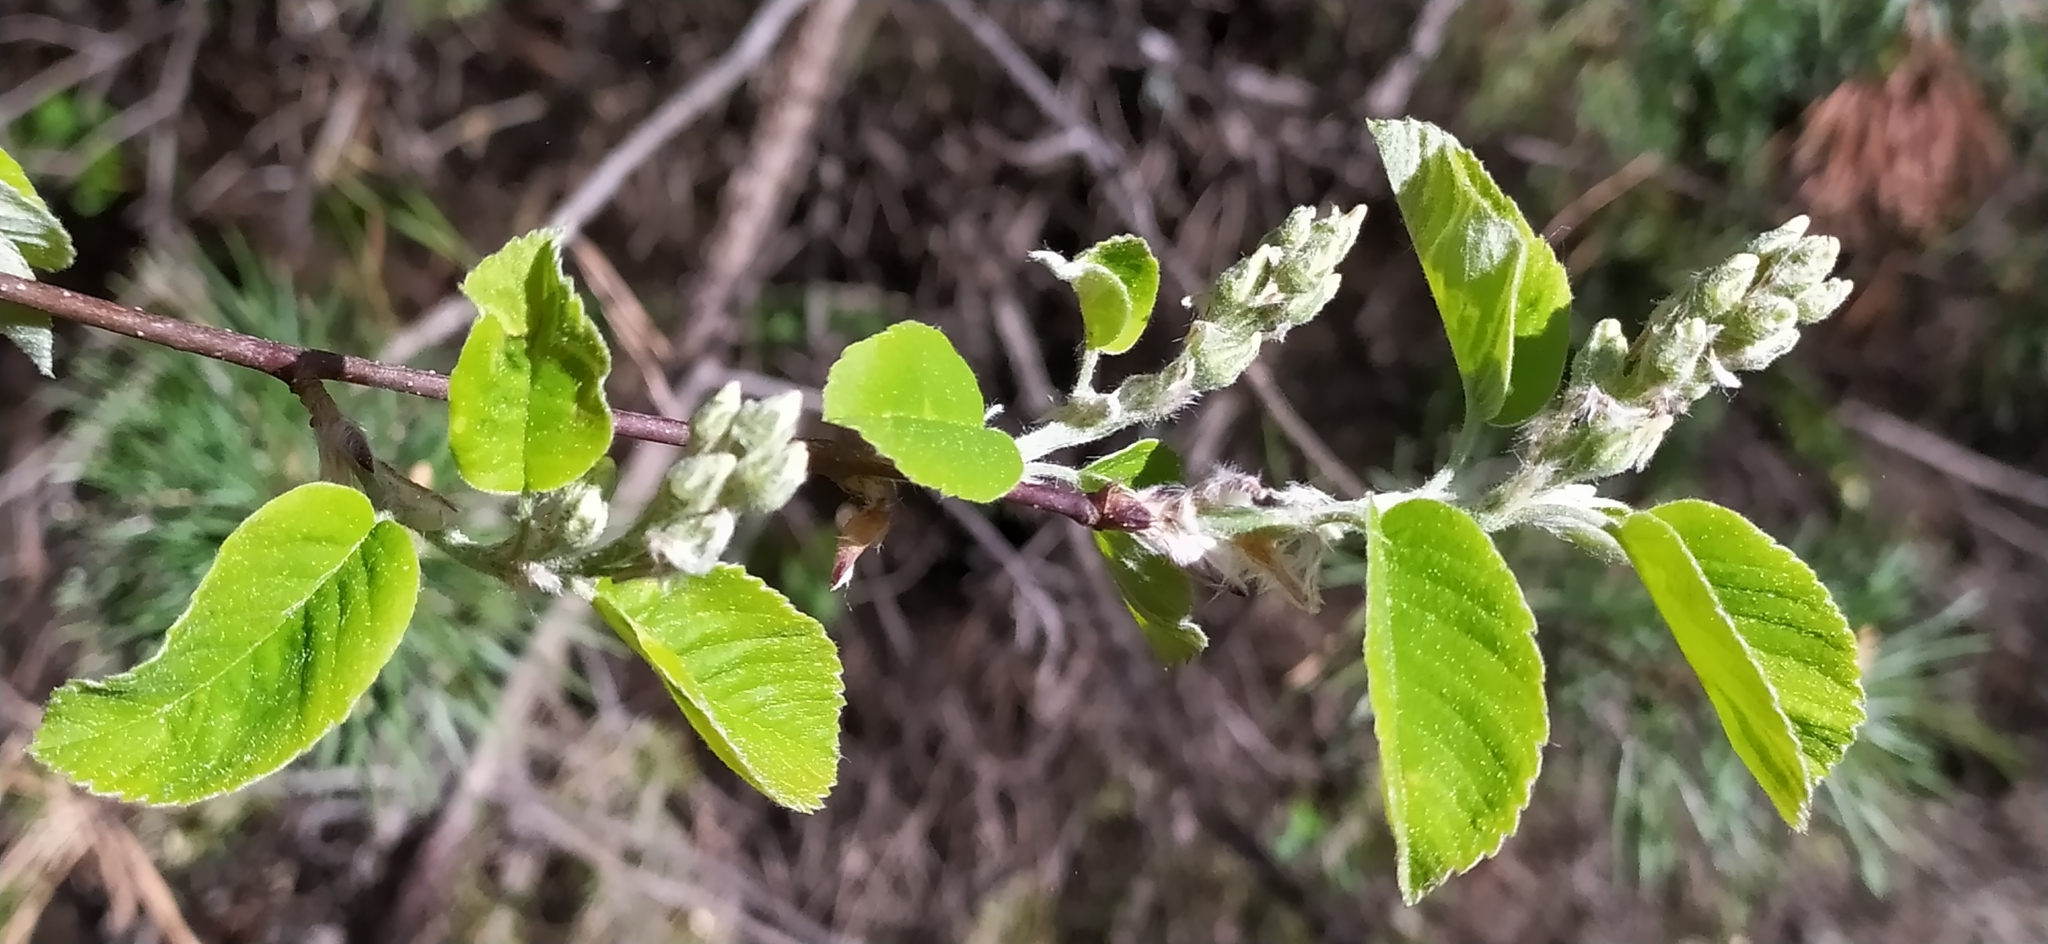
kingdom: Plantae
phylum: Tracheophyta
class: Magnoliopsida
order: Rosales
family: Rosaceae
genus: Amelanchier
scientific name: Amelanchier alnifolia
